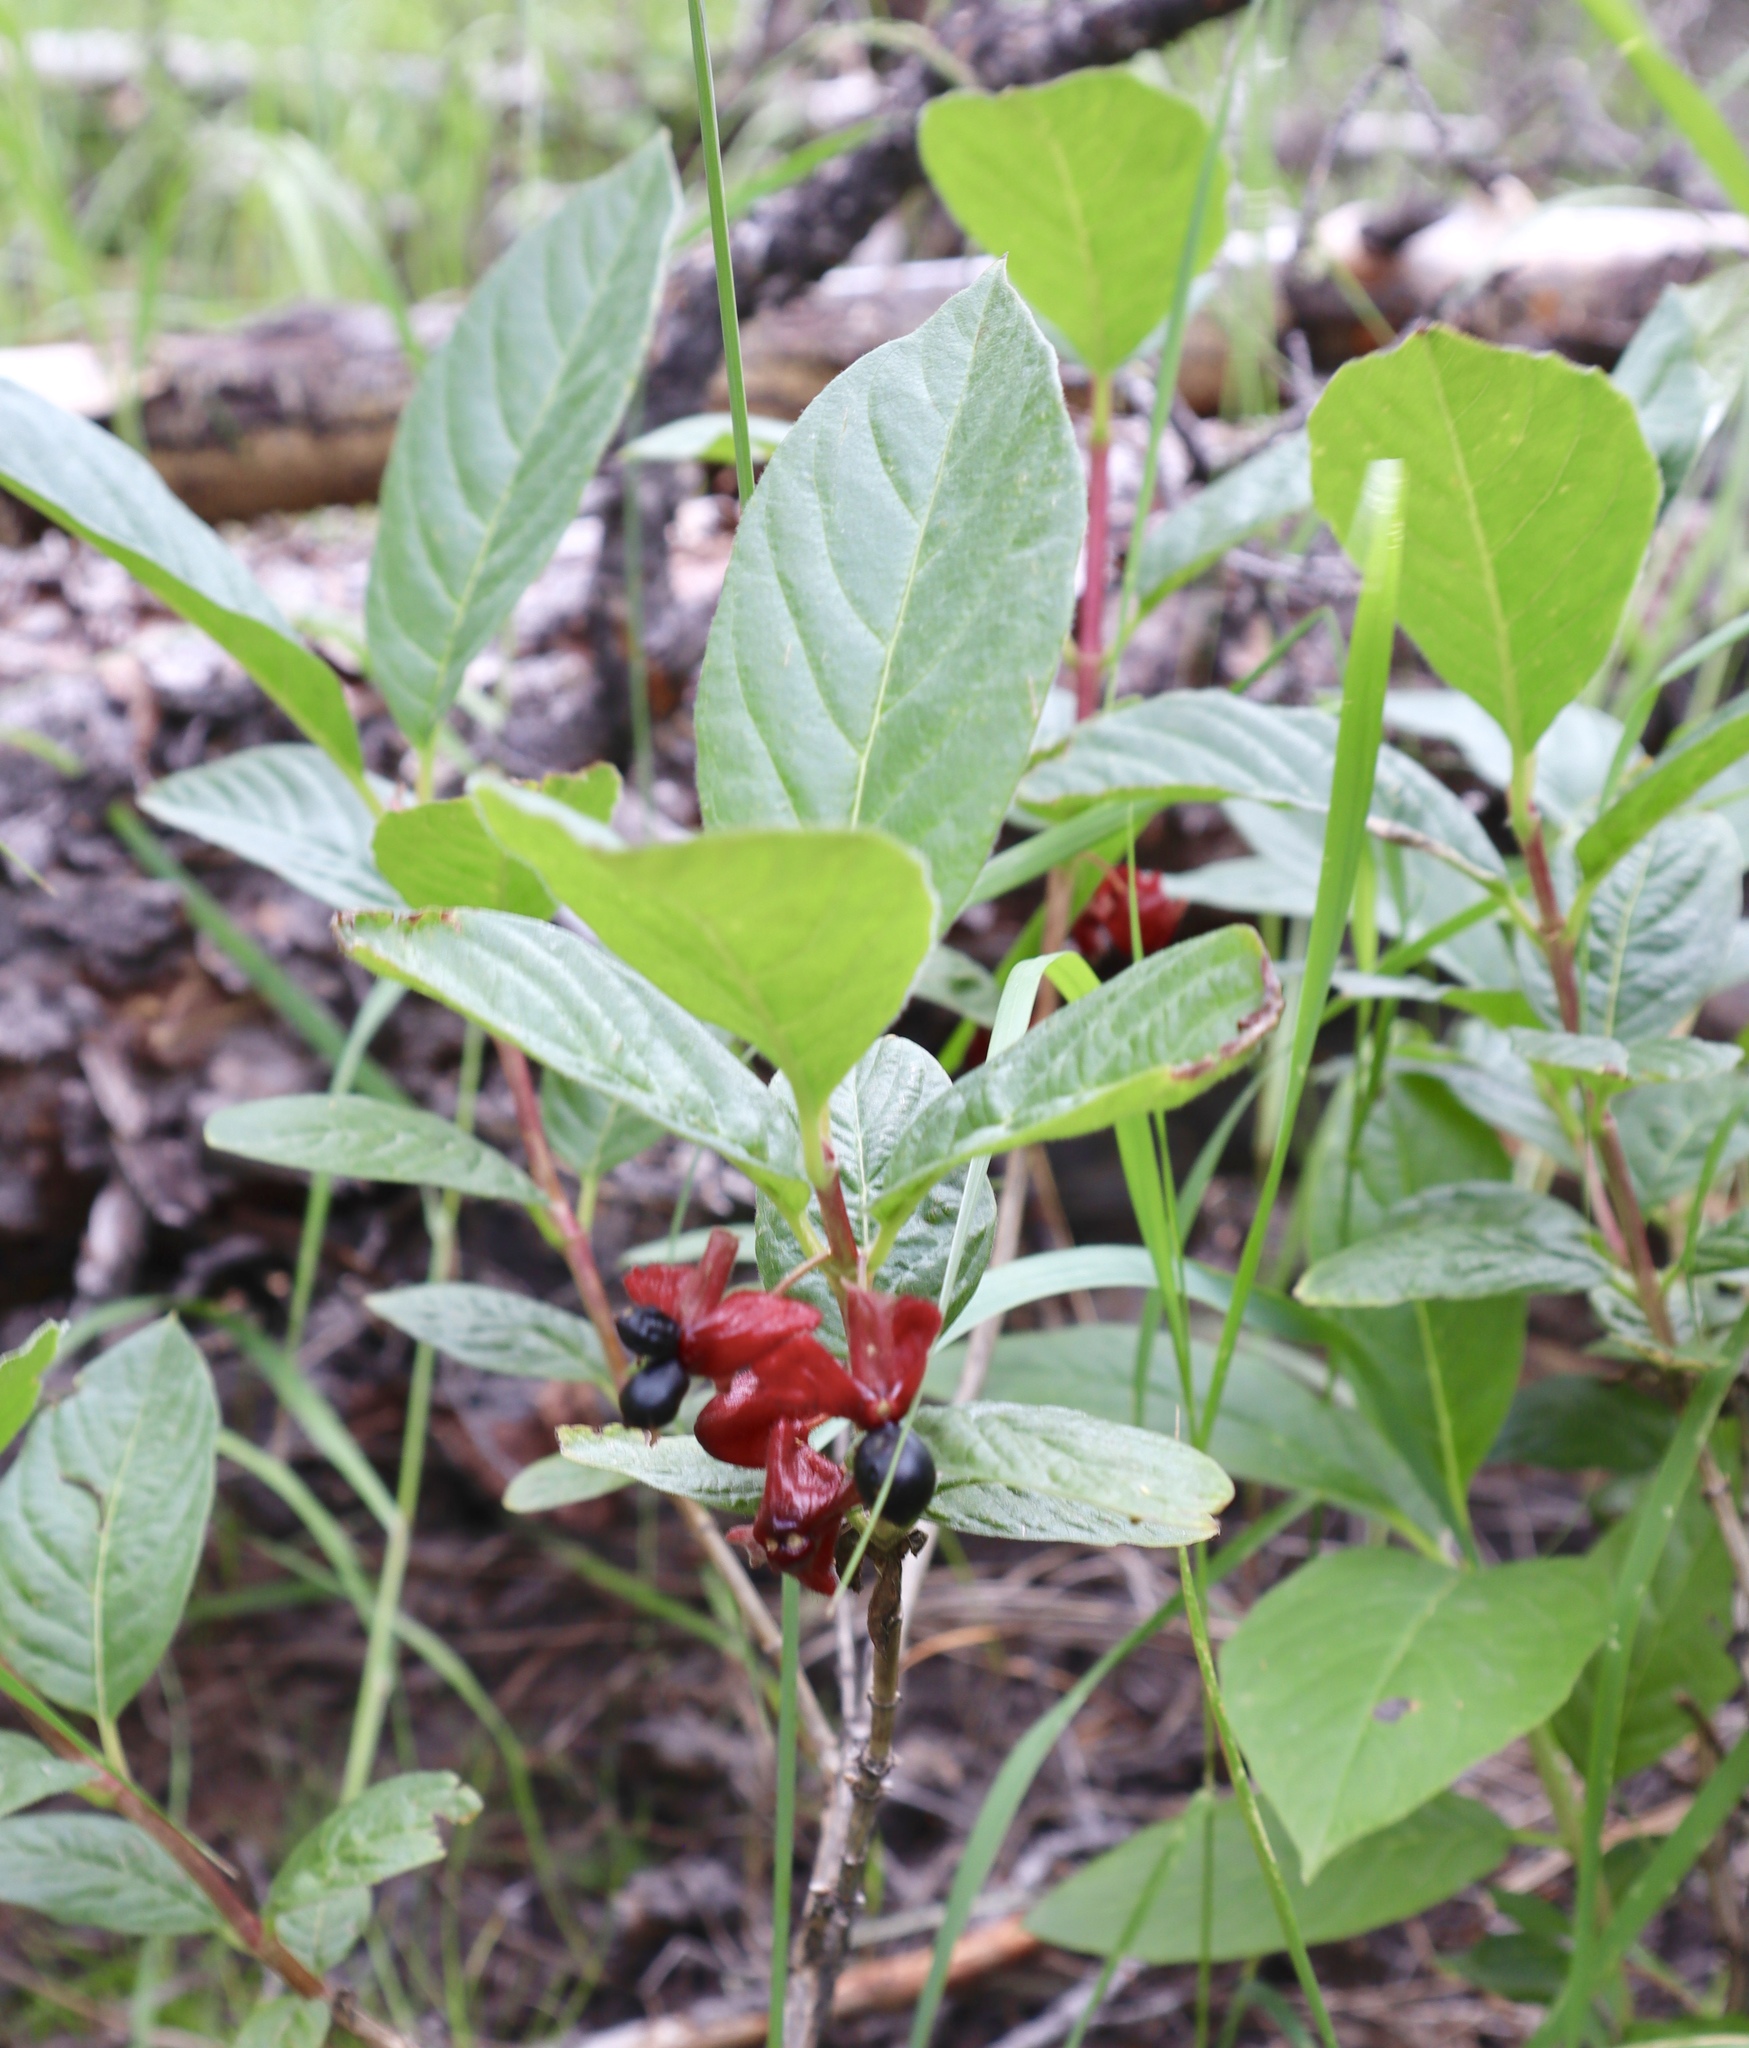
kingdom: Plantae
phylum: Tracheophyta
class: Magnoliopsida
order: Dipsacales
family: Caprifoliaceae
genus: Lonicera
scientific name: Lonicera involucrata
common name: Californian honeysuckle
